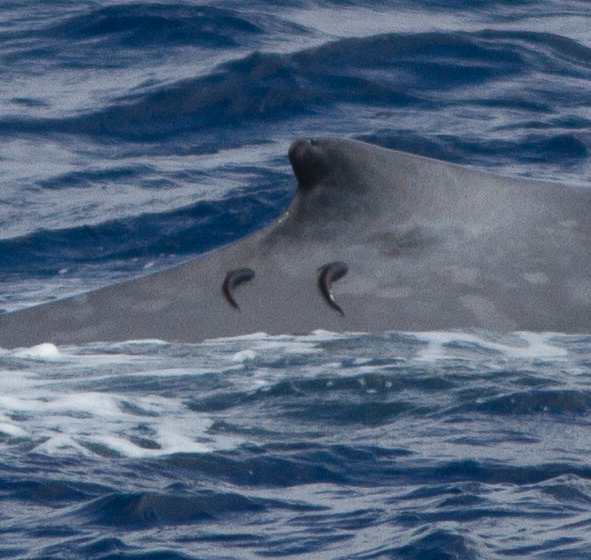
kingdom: Animalia
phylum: Chordata
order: Perciformes
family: Echeneidae
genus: Remora
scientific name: Remora australis
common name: Whalesucker
